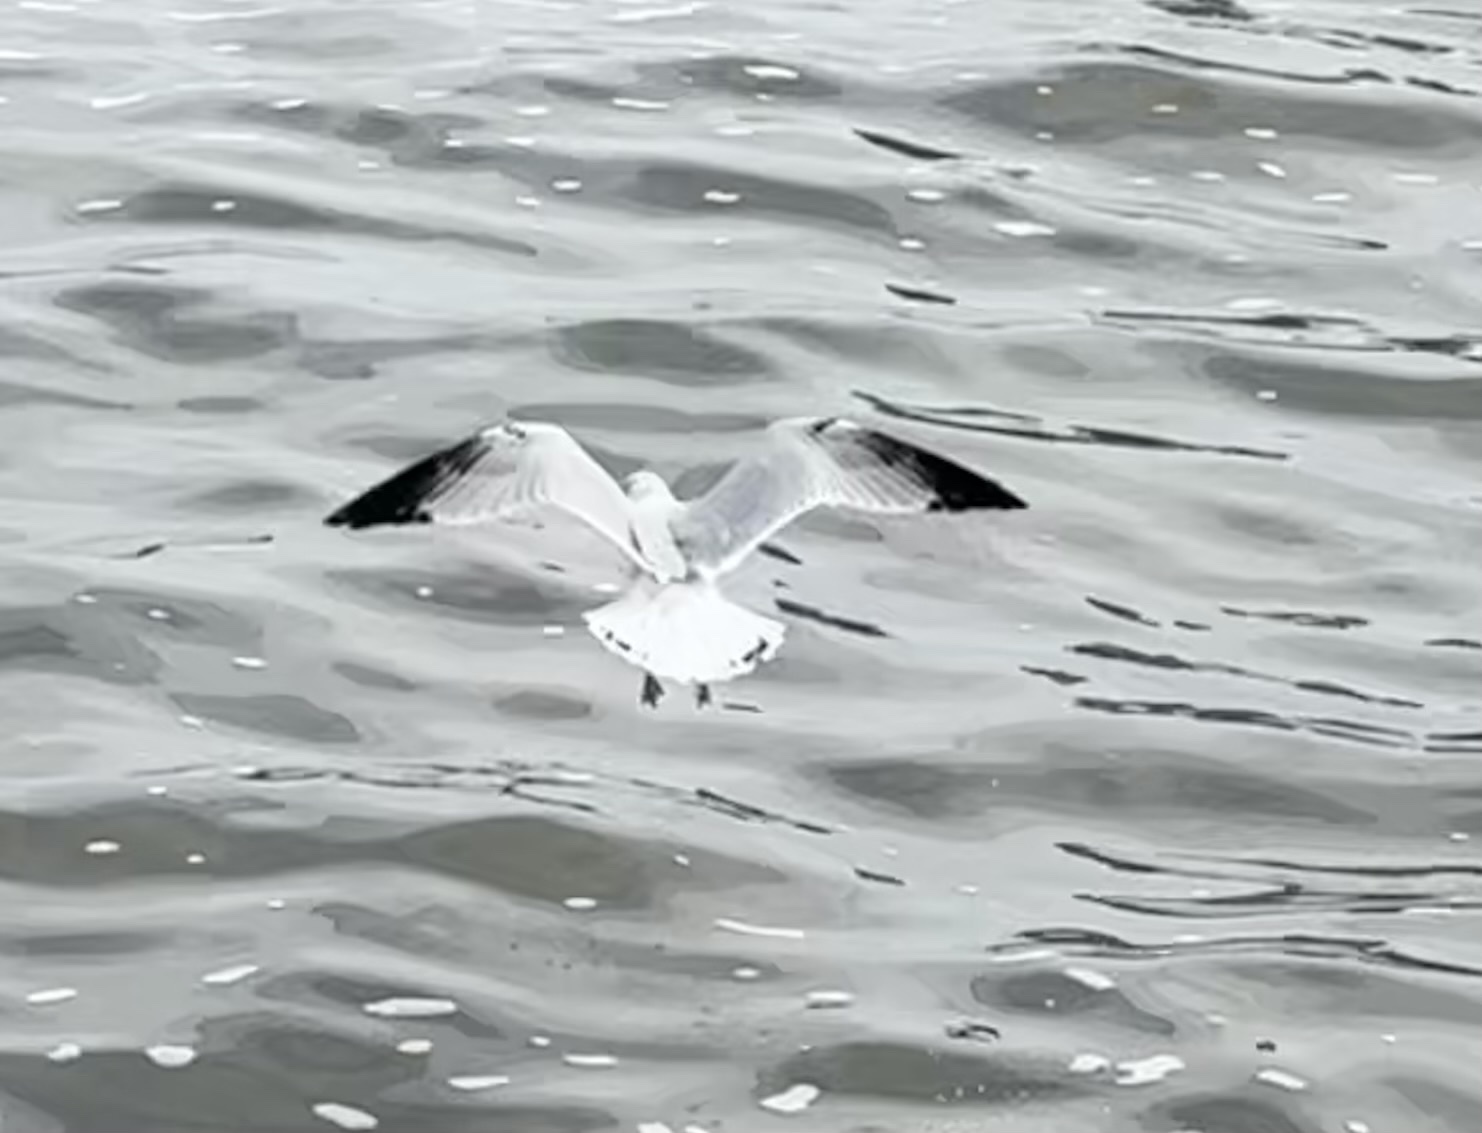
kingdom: Animalia
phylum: Chordata
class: Aves
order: Charadriiformes
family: Laridae
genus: Larus
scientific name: Larus delawarensis
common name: Ring-billed gull
